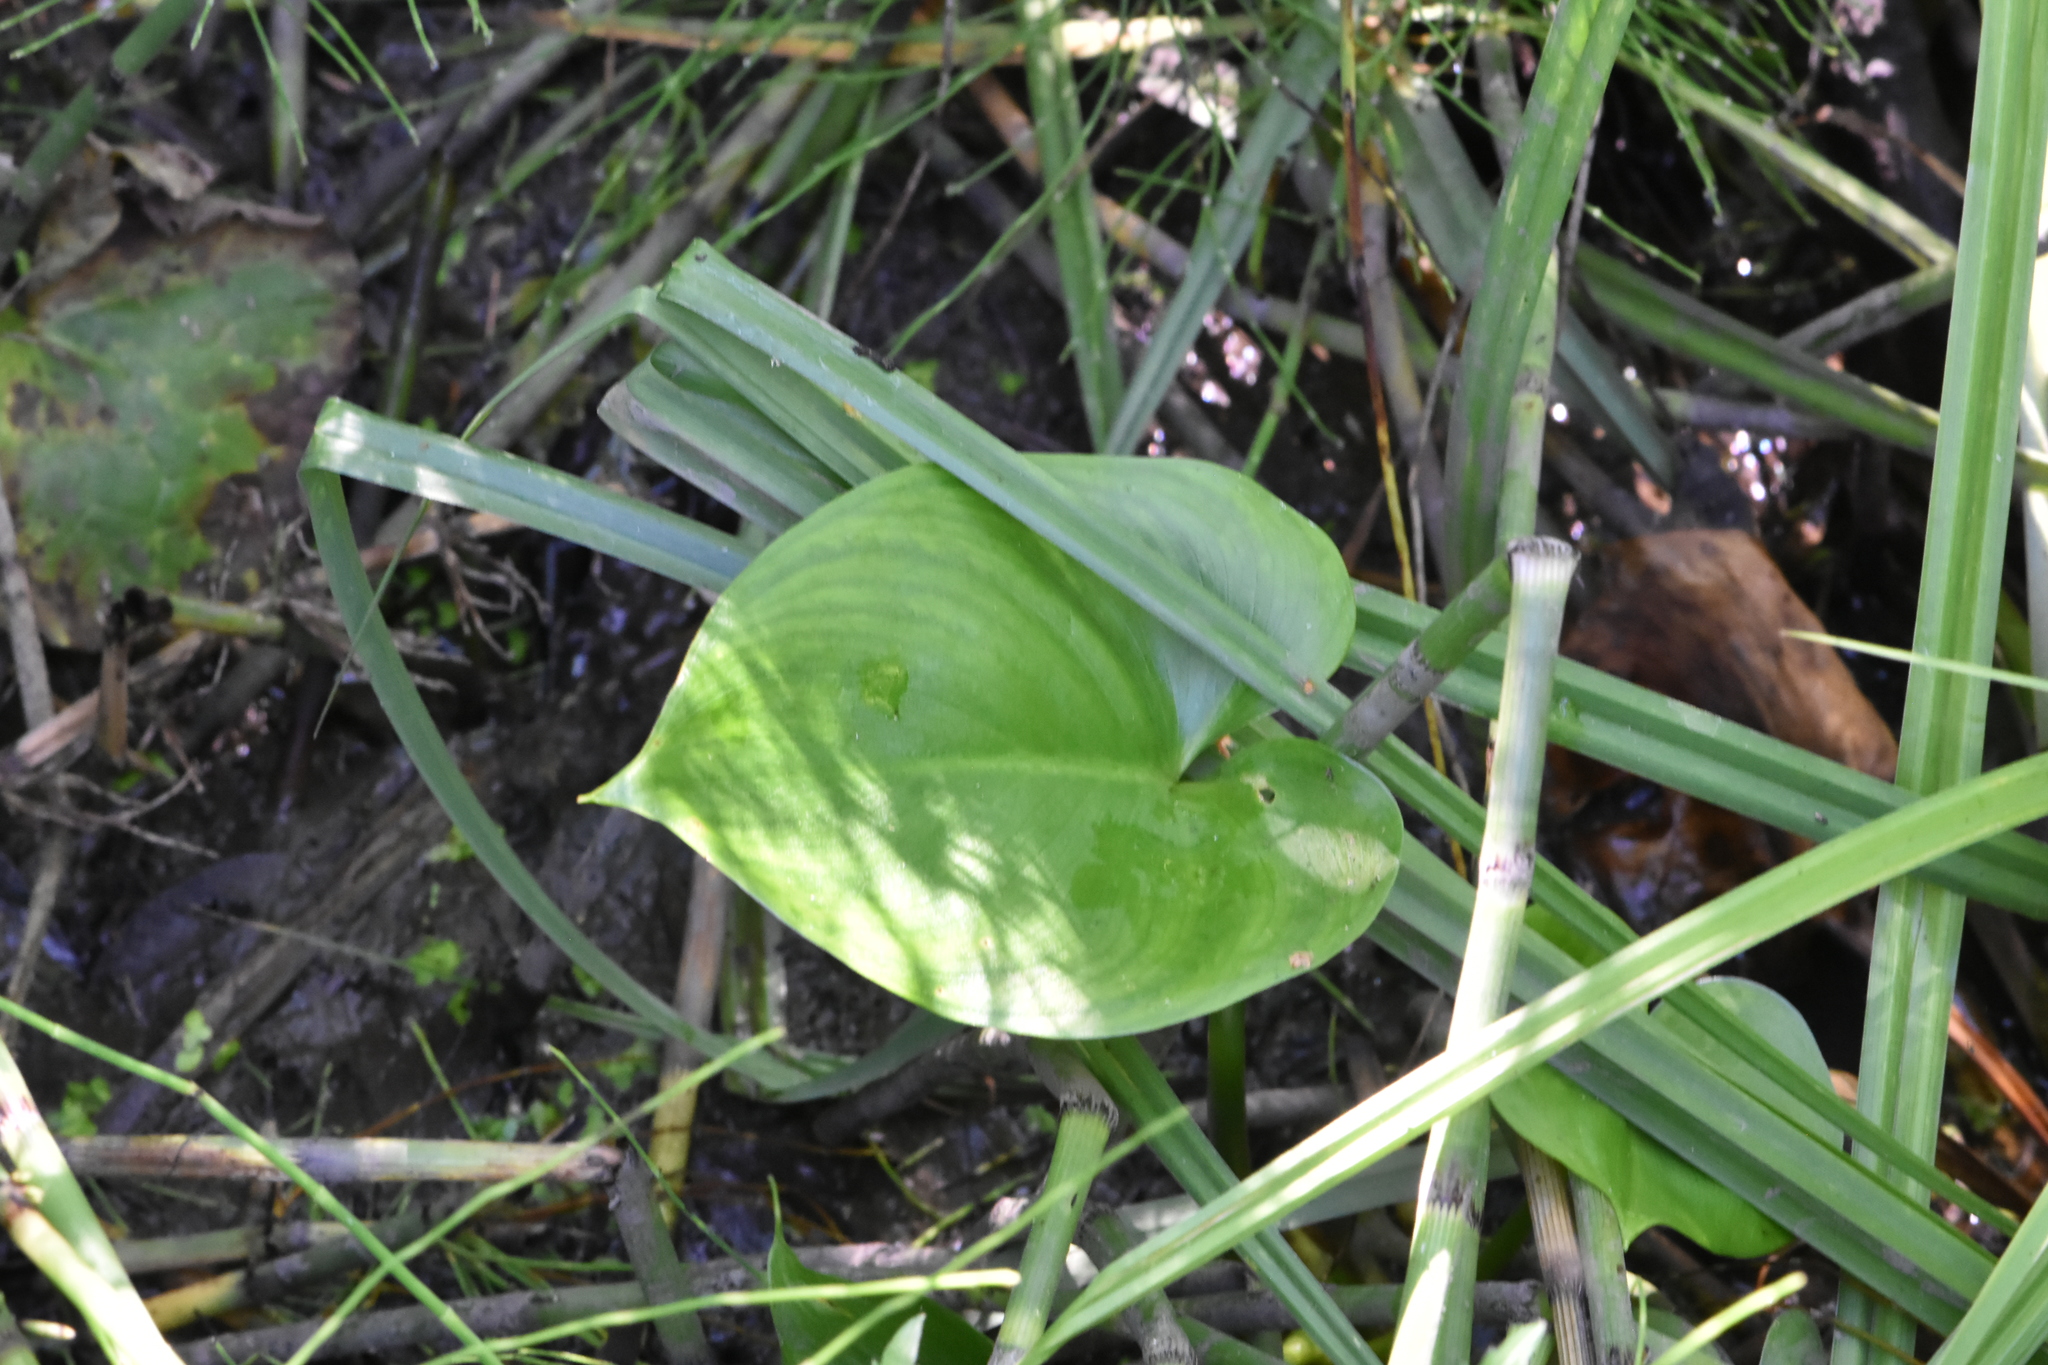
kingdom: Plantae
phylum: Tracheophyta
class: Liliopsida
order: Alismatales
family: Araceae
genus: Calla
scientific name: Calla palustris
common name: Bog arum
